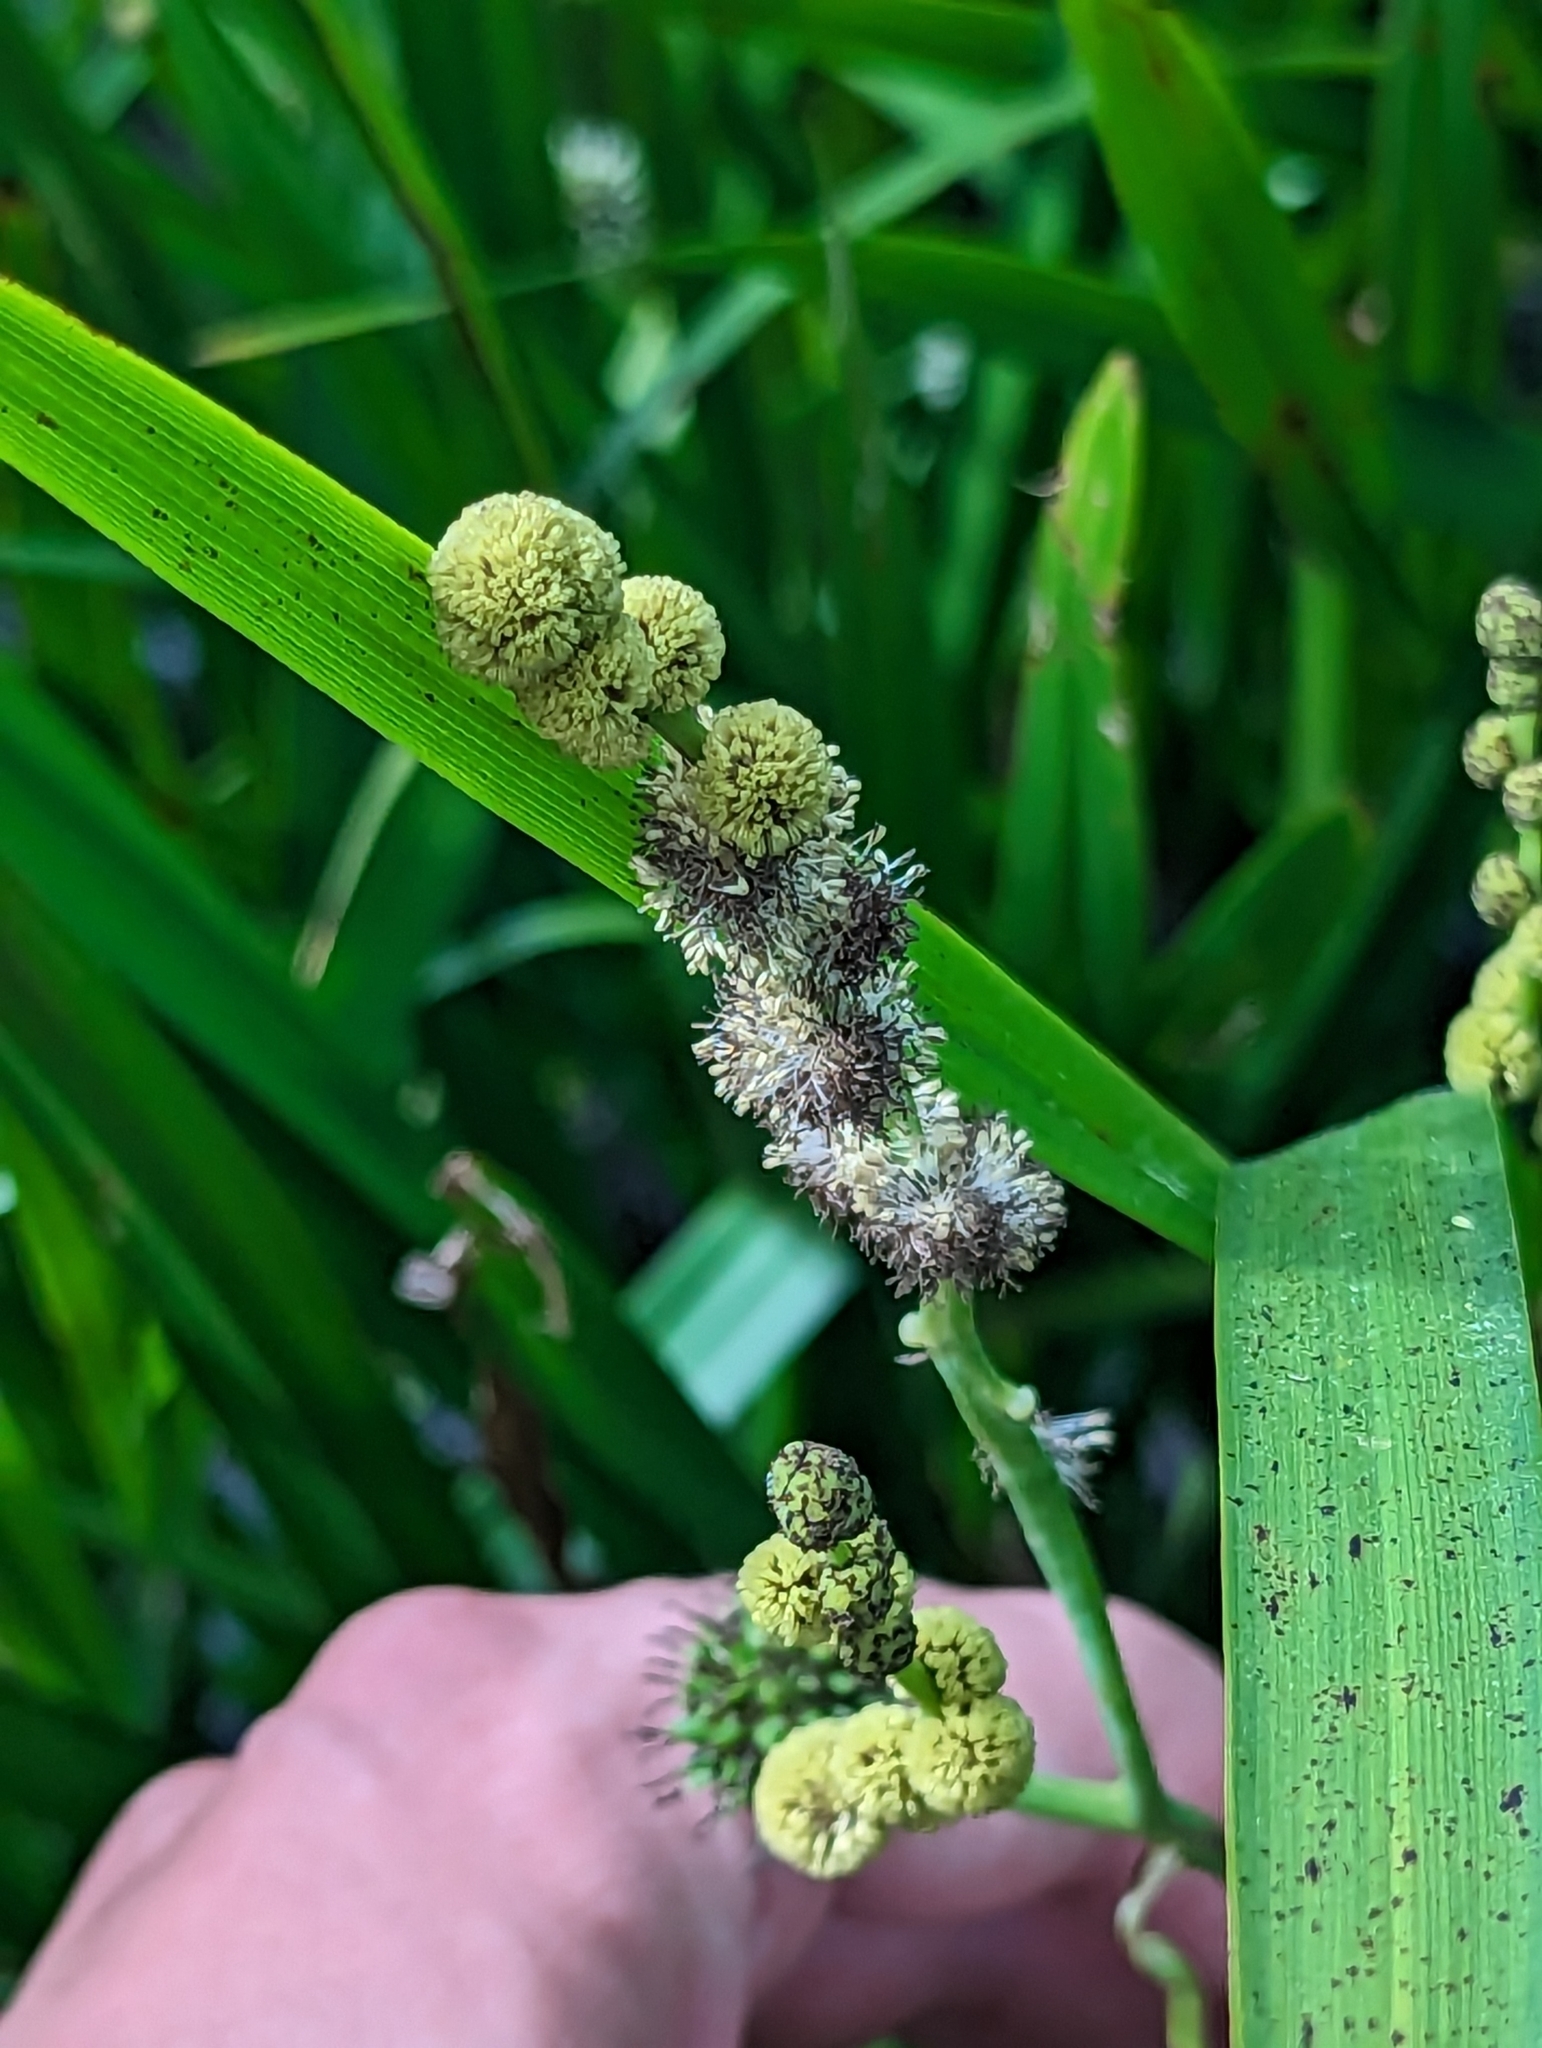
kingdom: Plantae
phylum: Tracheophyta
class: Liliopsida
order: Poales
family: Typhaceae
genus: Sparganium
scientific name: Sparganium erectum
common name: Branched bur-reed
